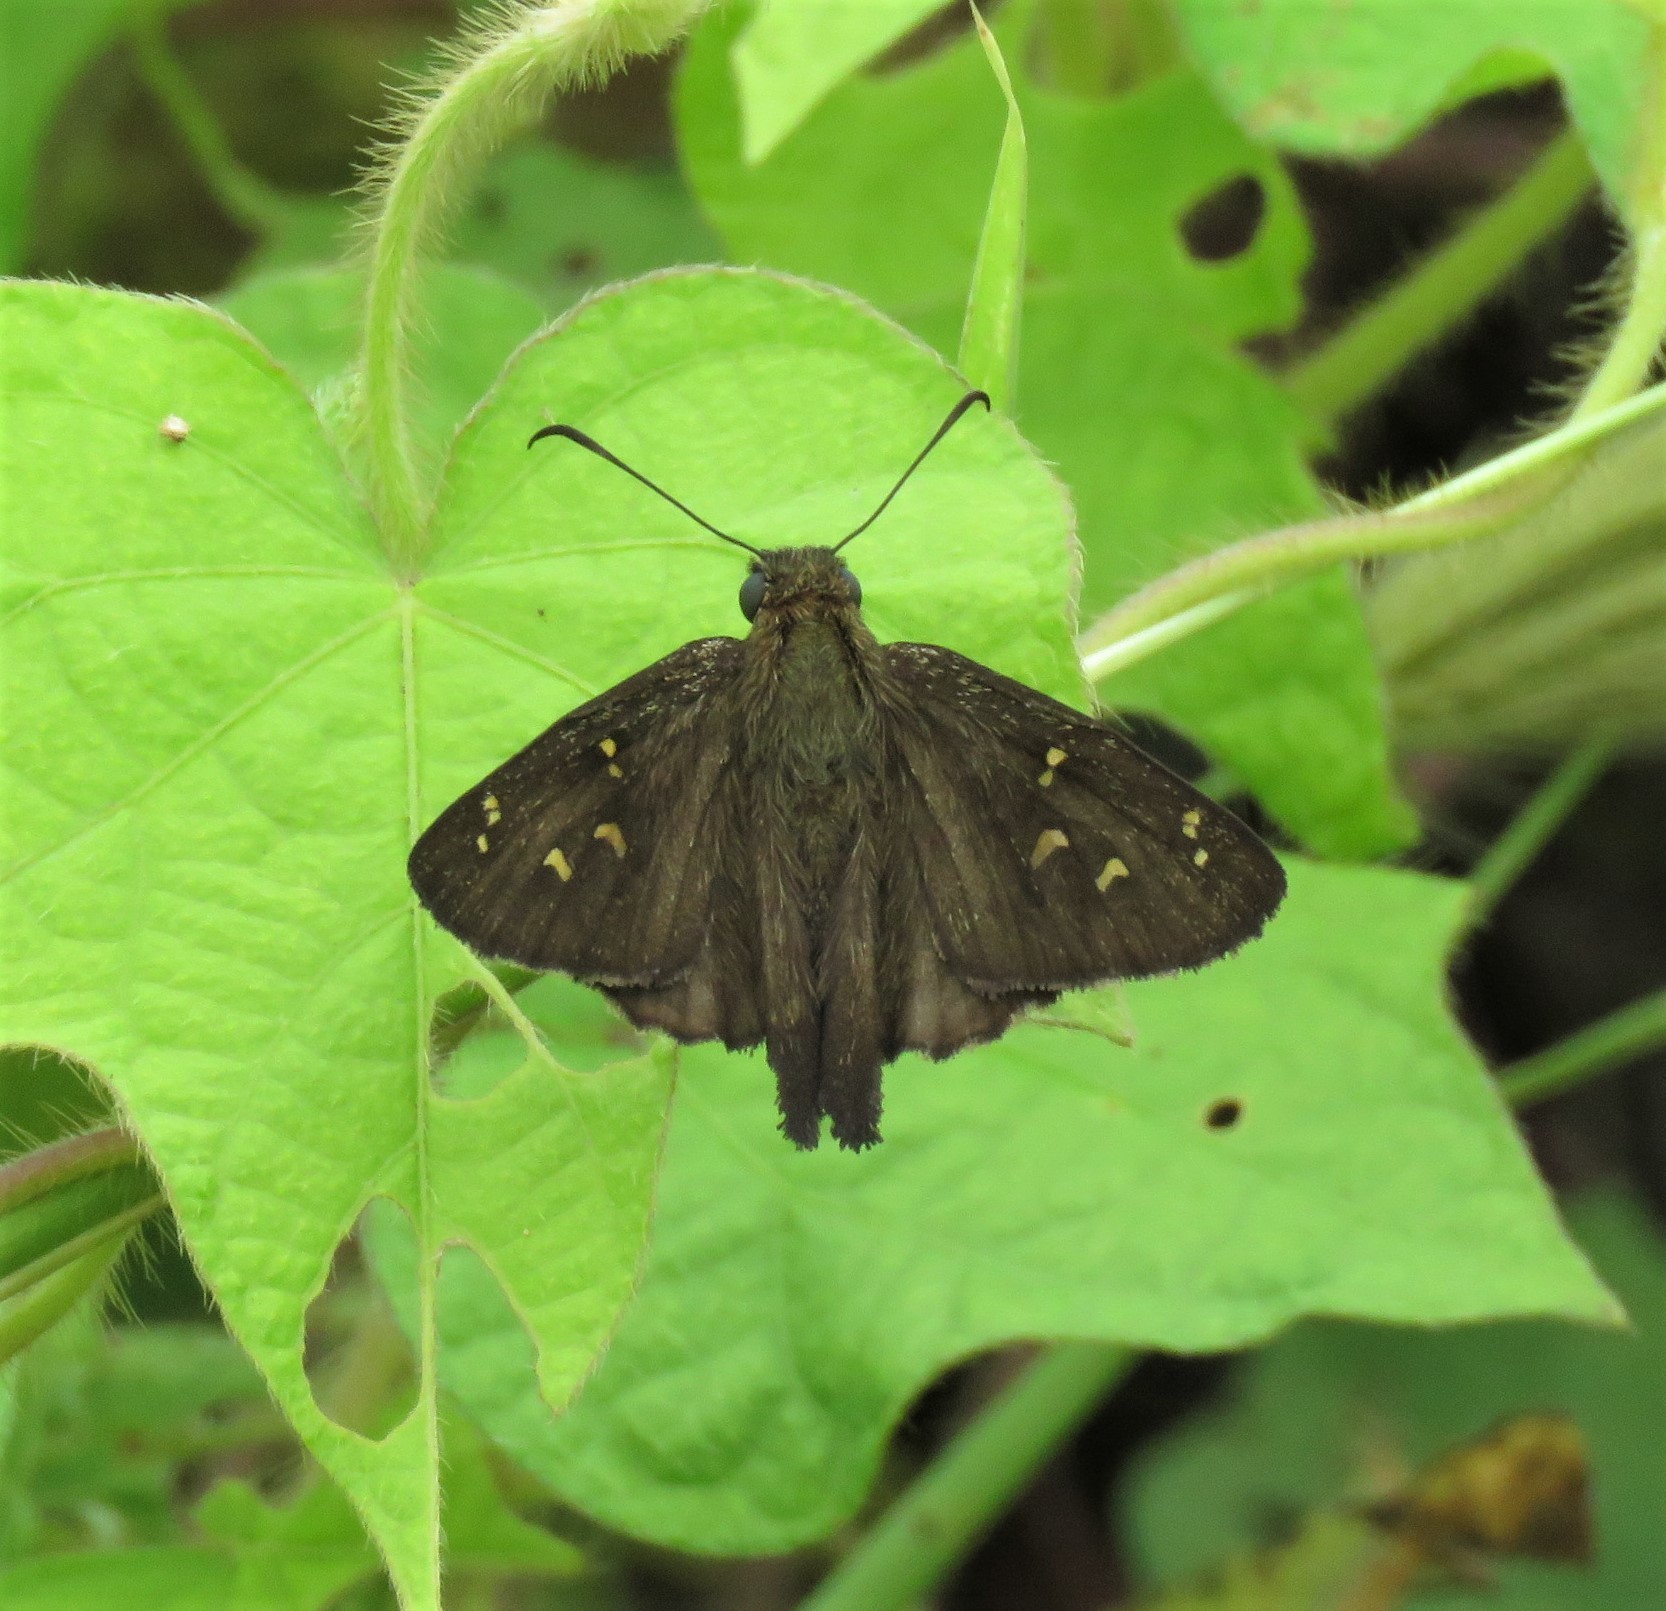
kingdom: Animalia
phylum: Arthropoda
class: Insecta
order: Lepidoptera
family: Hesperiidae
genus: Thorybes
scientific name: Thorybes
